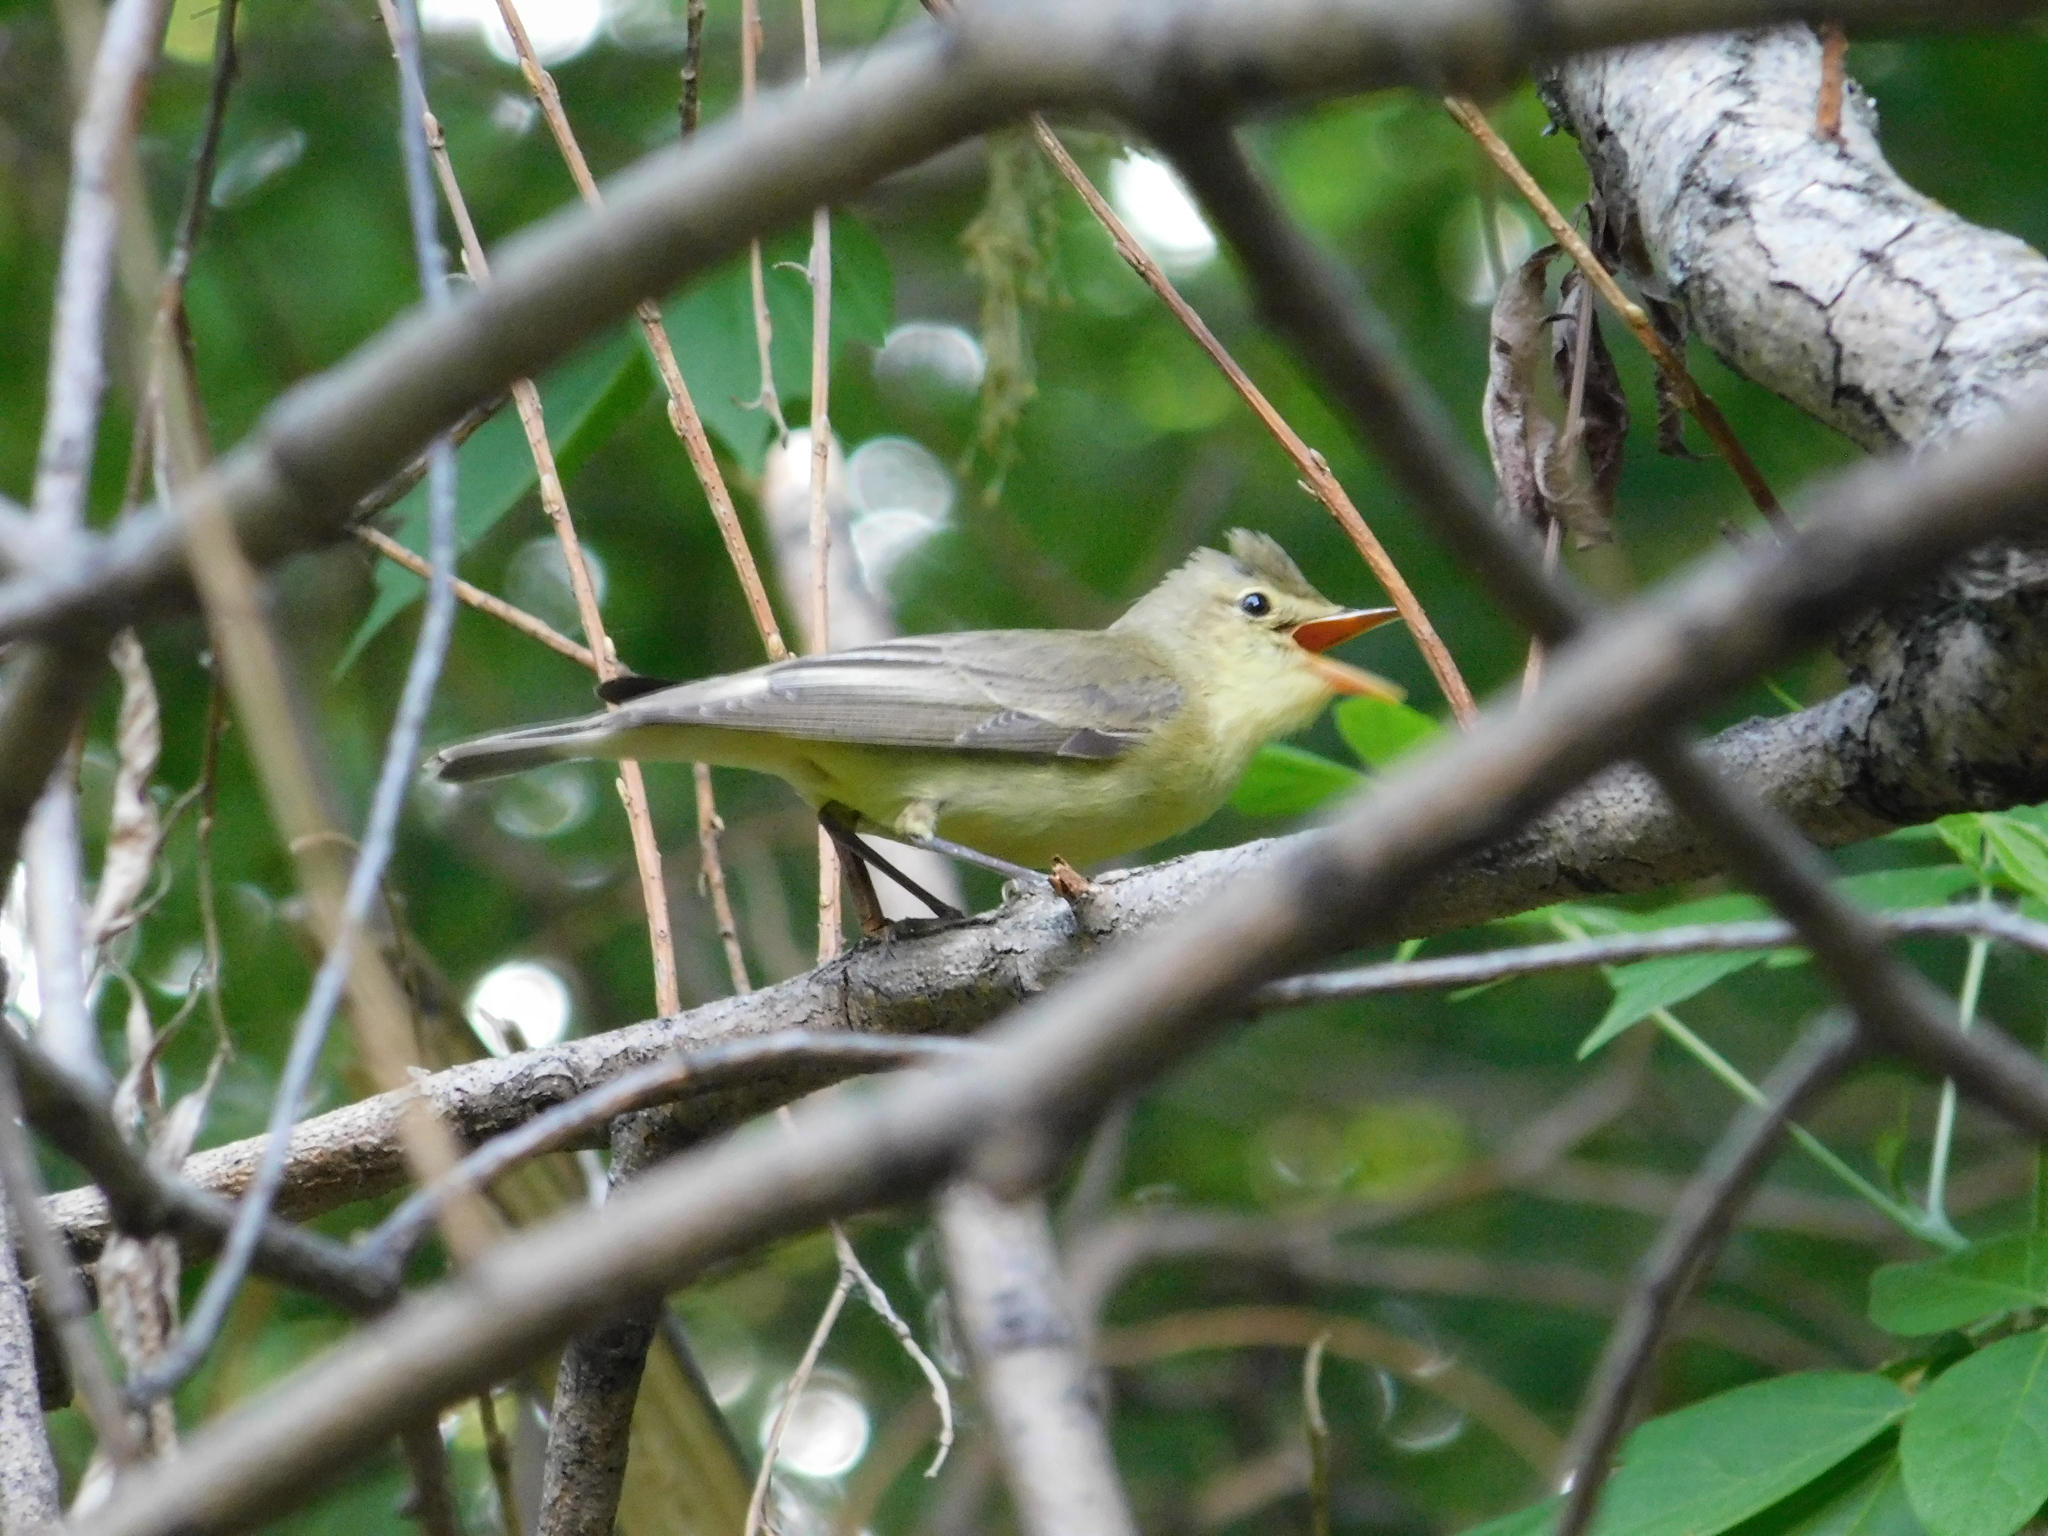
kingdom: Animalia
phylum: Chordata
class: Aves
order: Passeriformes
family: Acrocephalidae
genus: Hippolais
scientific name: Hippolais icterina
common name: Icterine warbler
